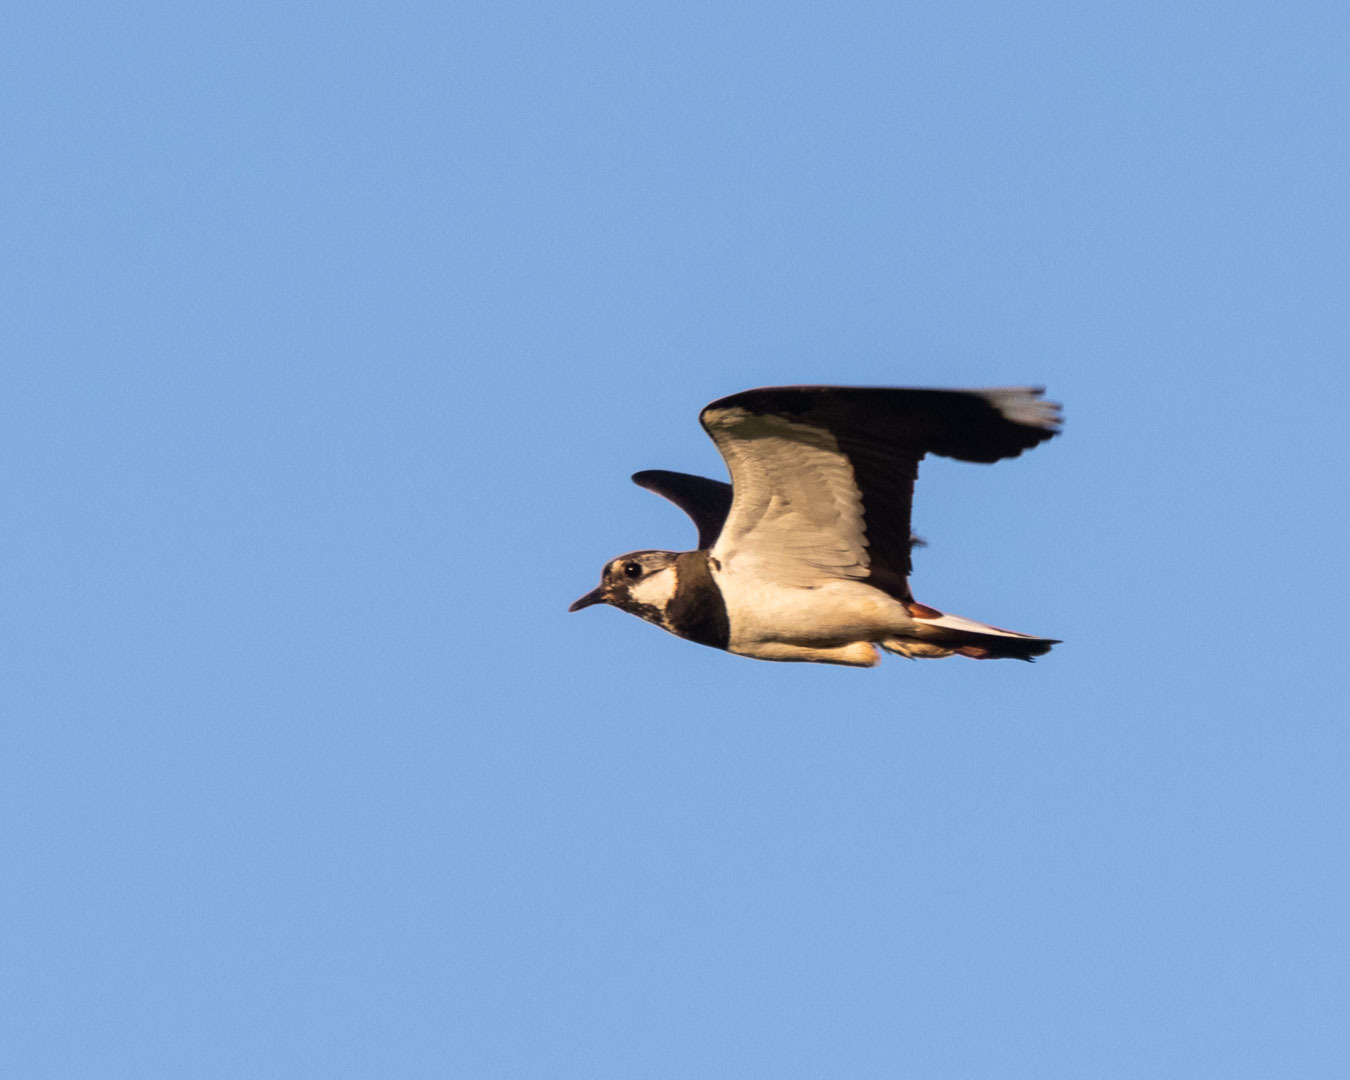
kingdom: Animalia
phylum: Chordata
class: Aves
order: Charadriiformes
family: Charadriidae
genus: Vanellus
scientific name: Vanellus vanellus
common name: Northern lapwing
